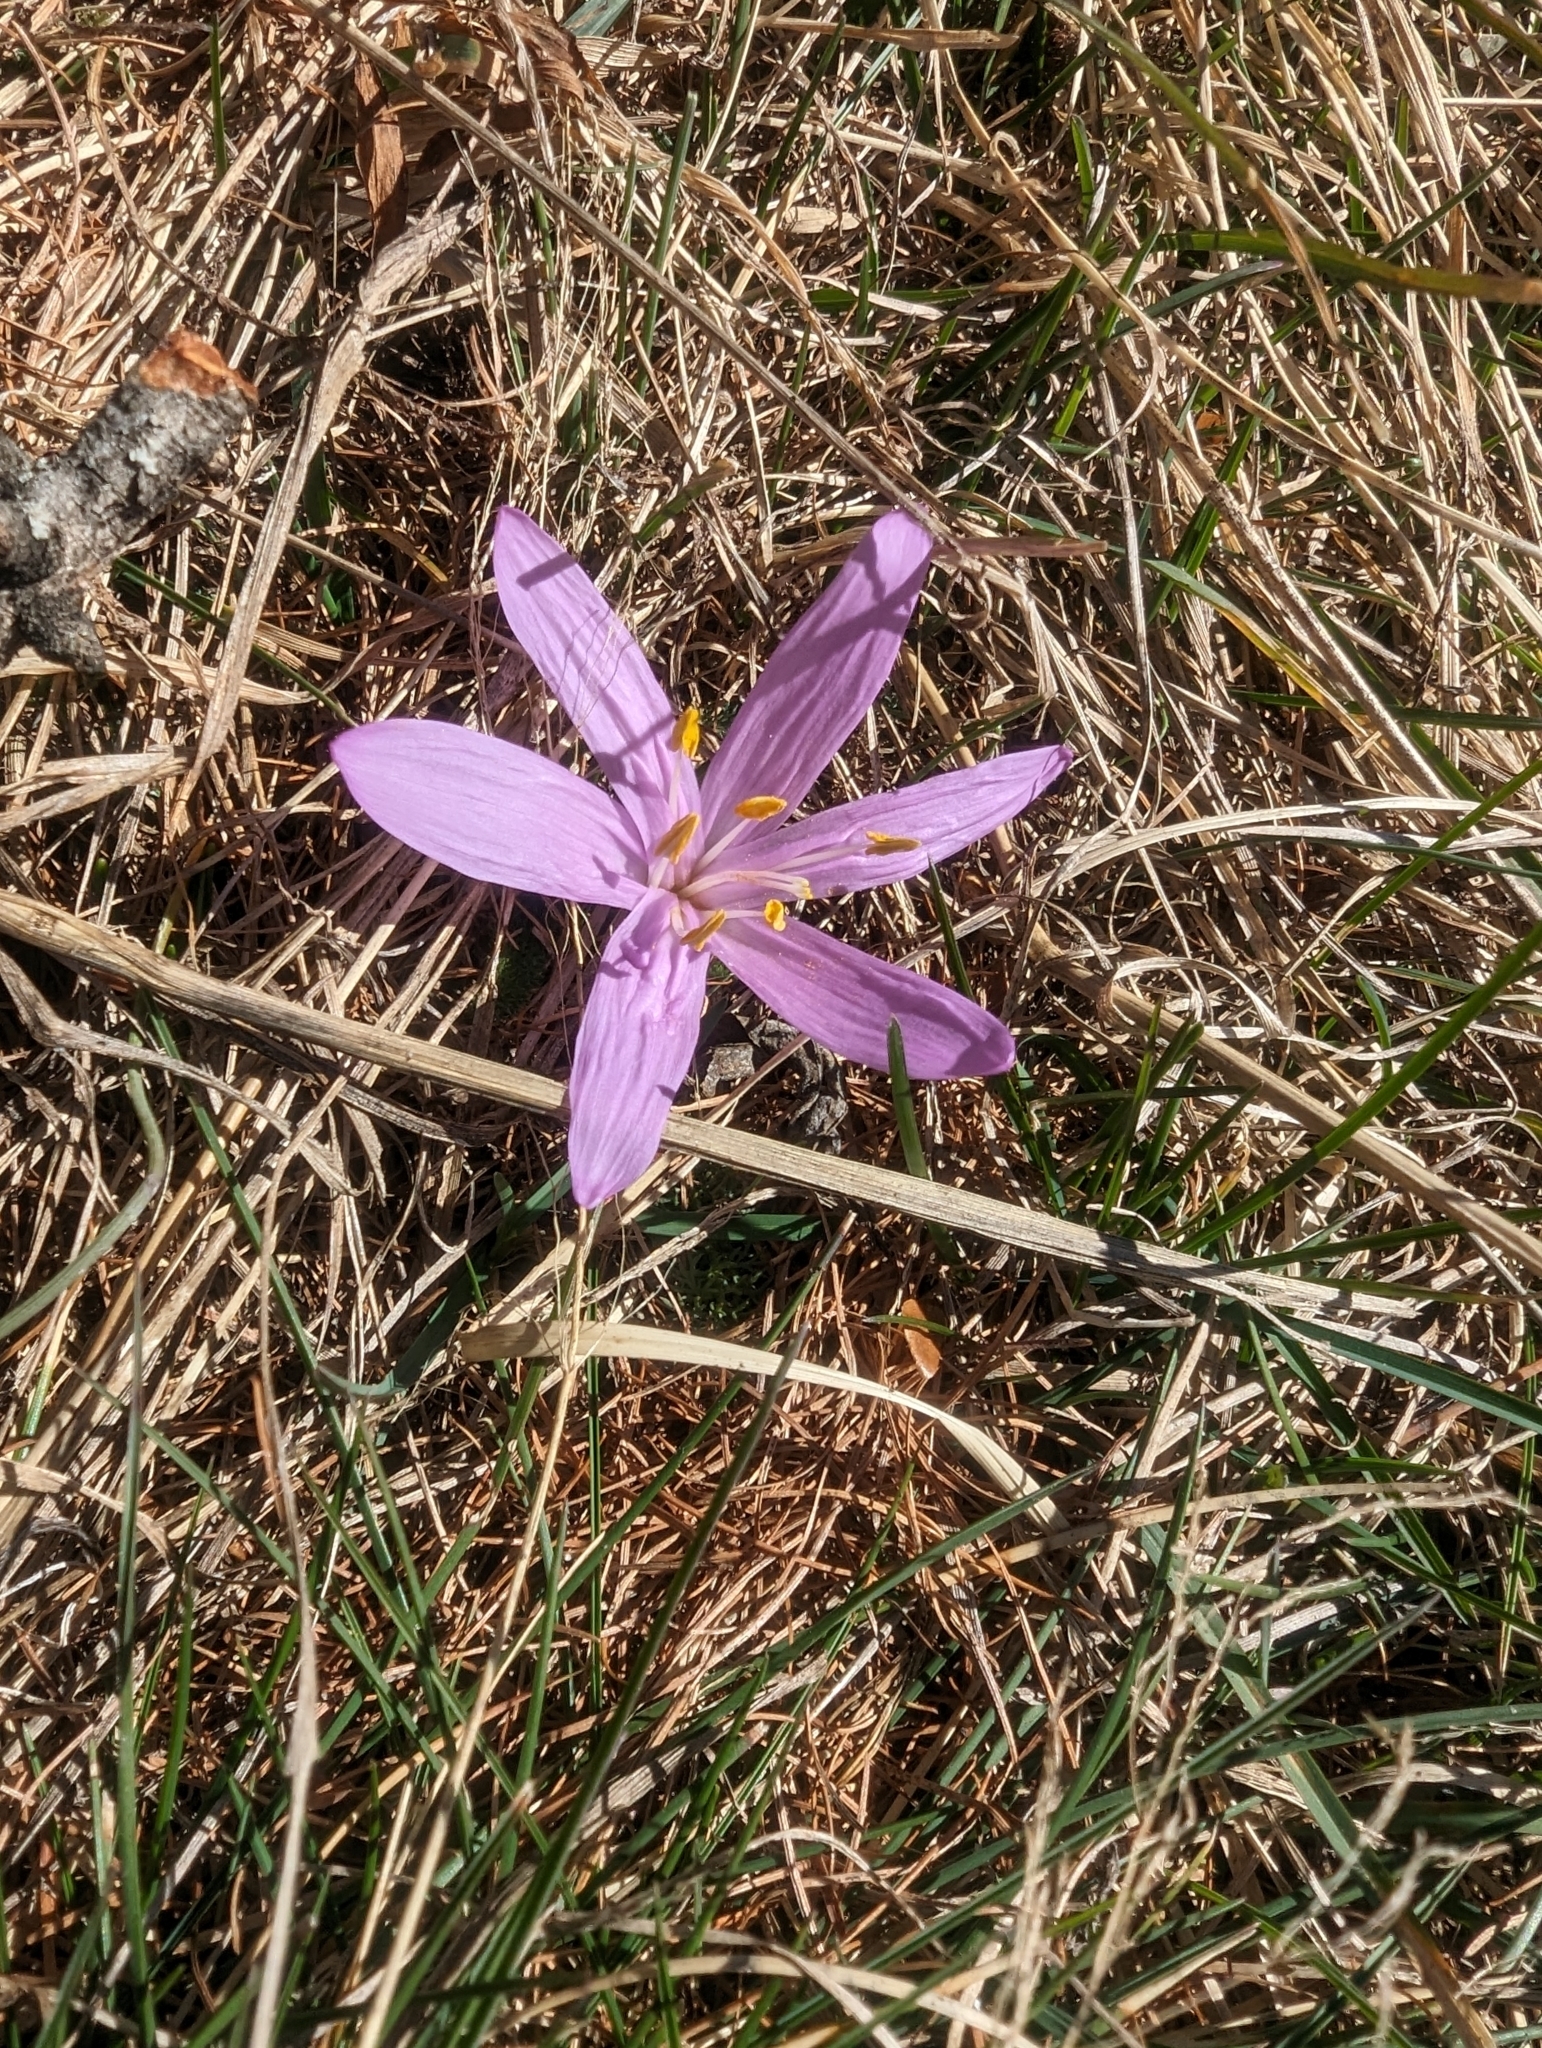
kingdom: Plantae
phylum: Tracheophyta
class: Liliopsida
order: Liliales
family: Colchicaceae
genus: Colchicum
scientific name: Colchicum bulbocodium
